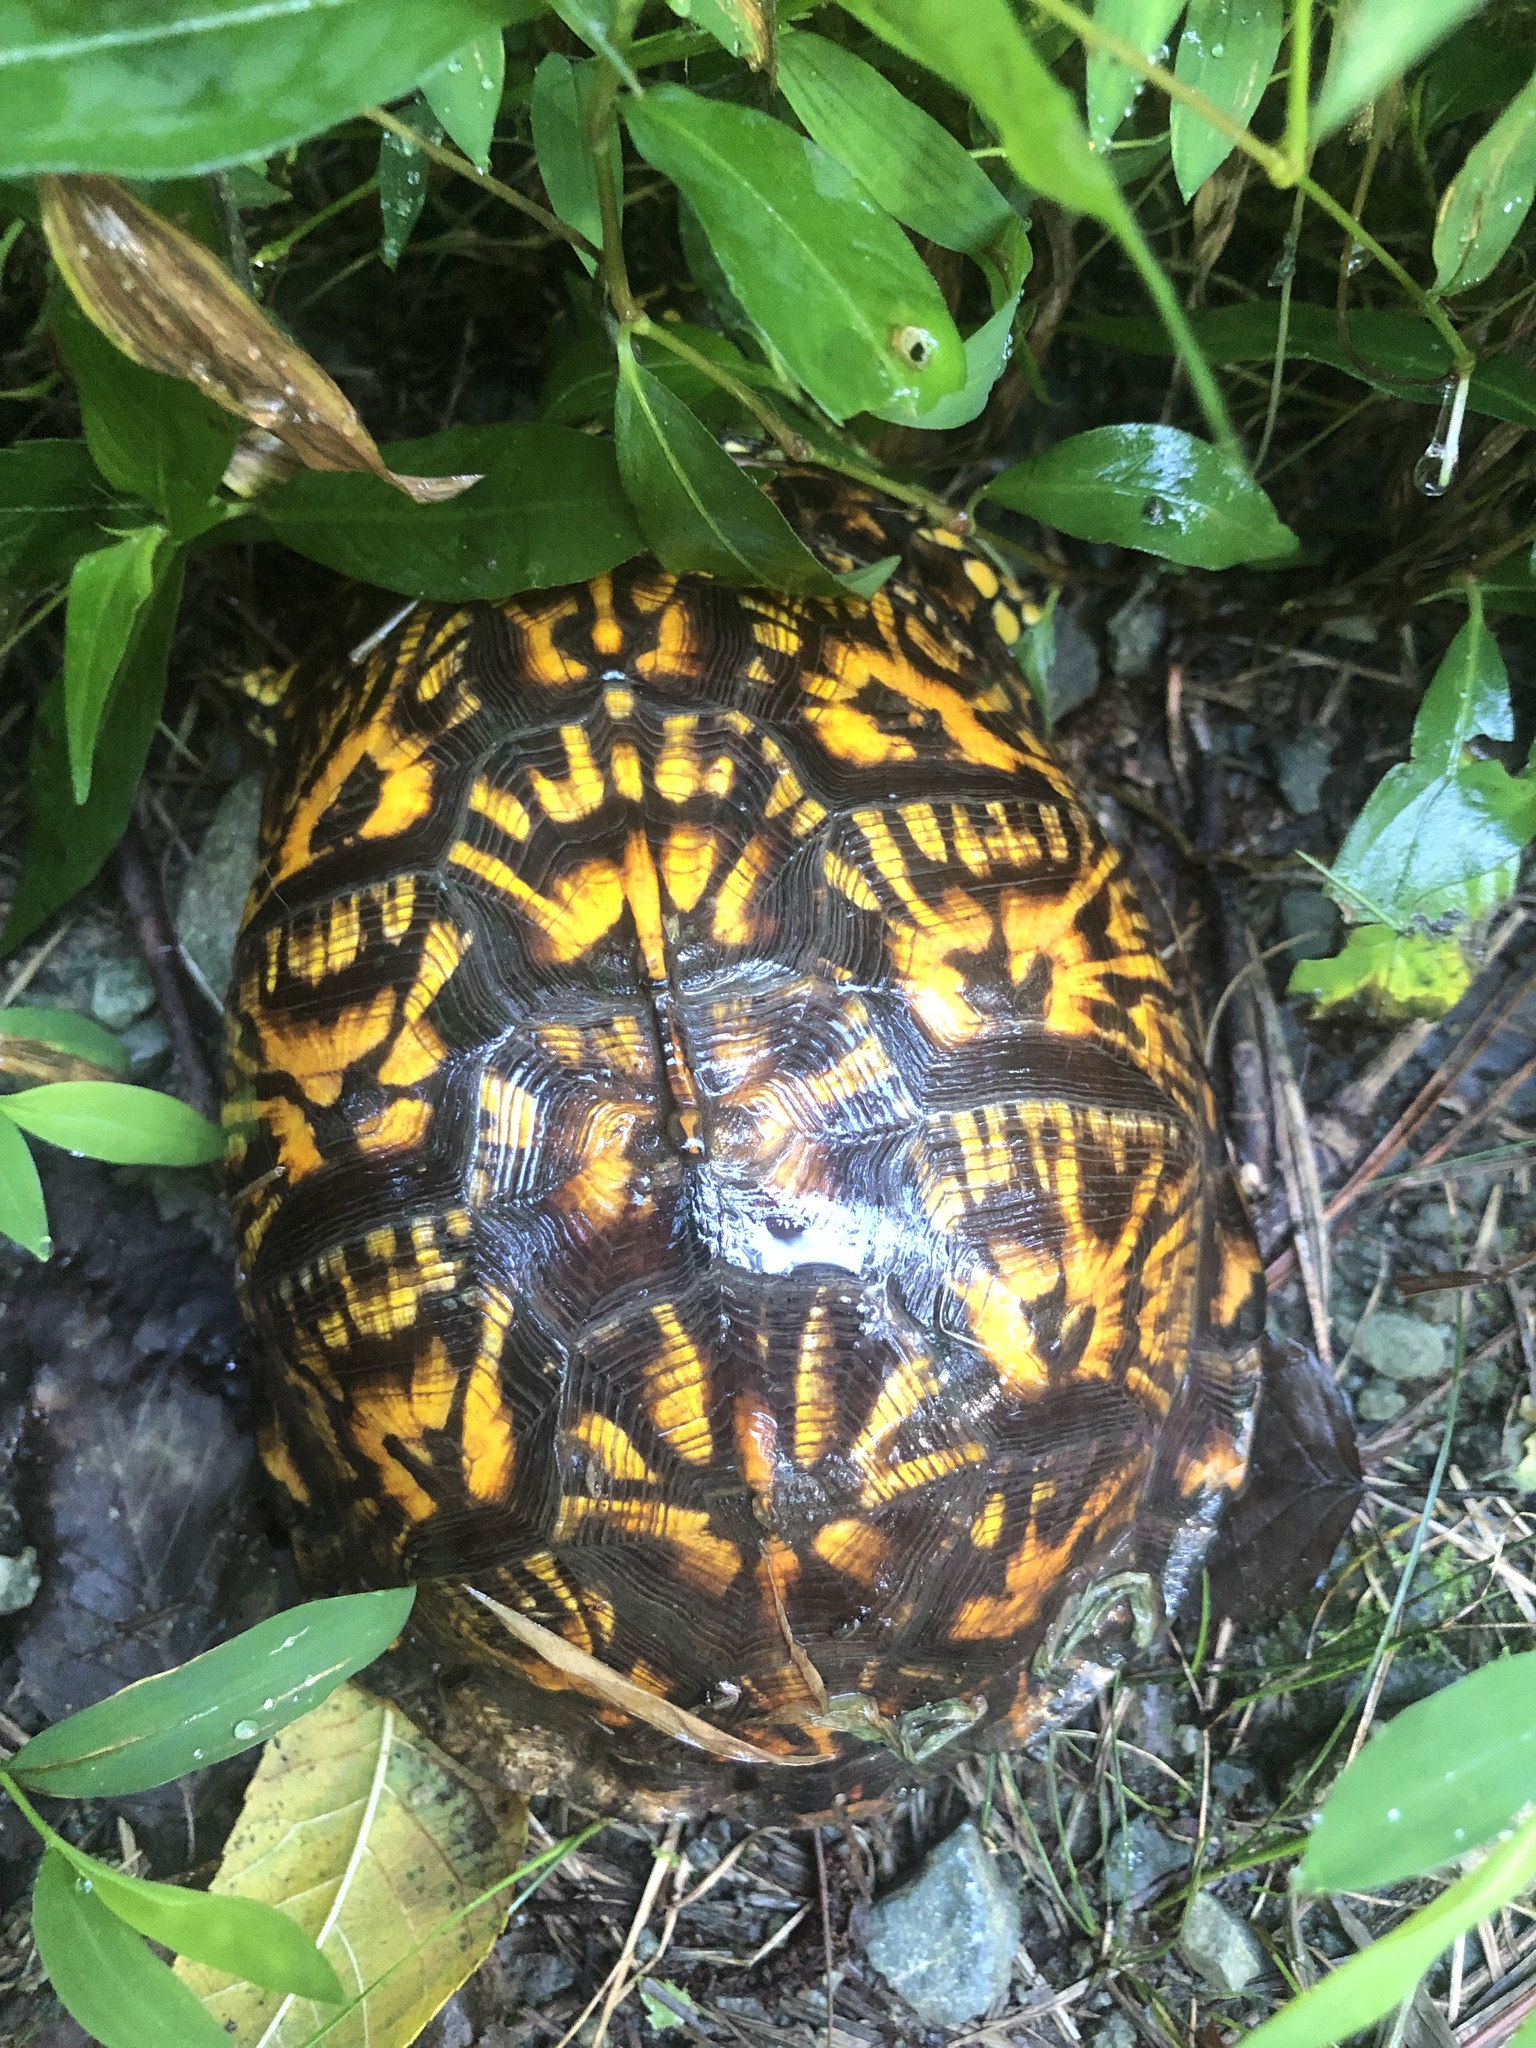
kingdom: Animalia
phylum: Chordata
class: Testudines
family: Emydidae
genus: Terrapene
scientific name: Terrapene carolina
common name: Common box turtle
